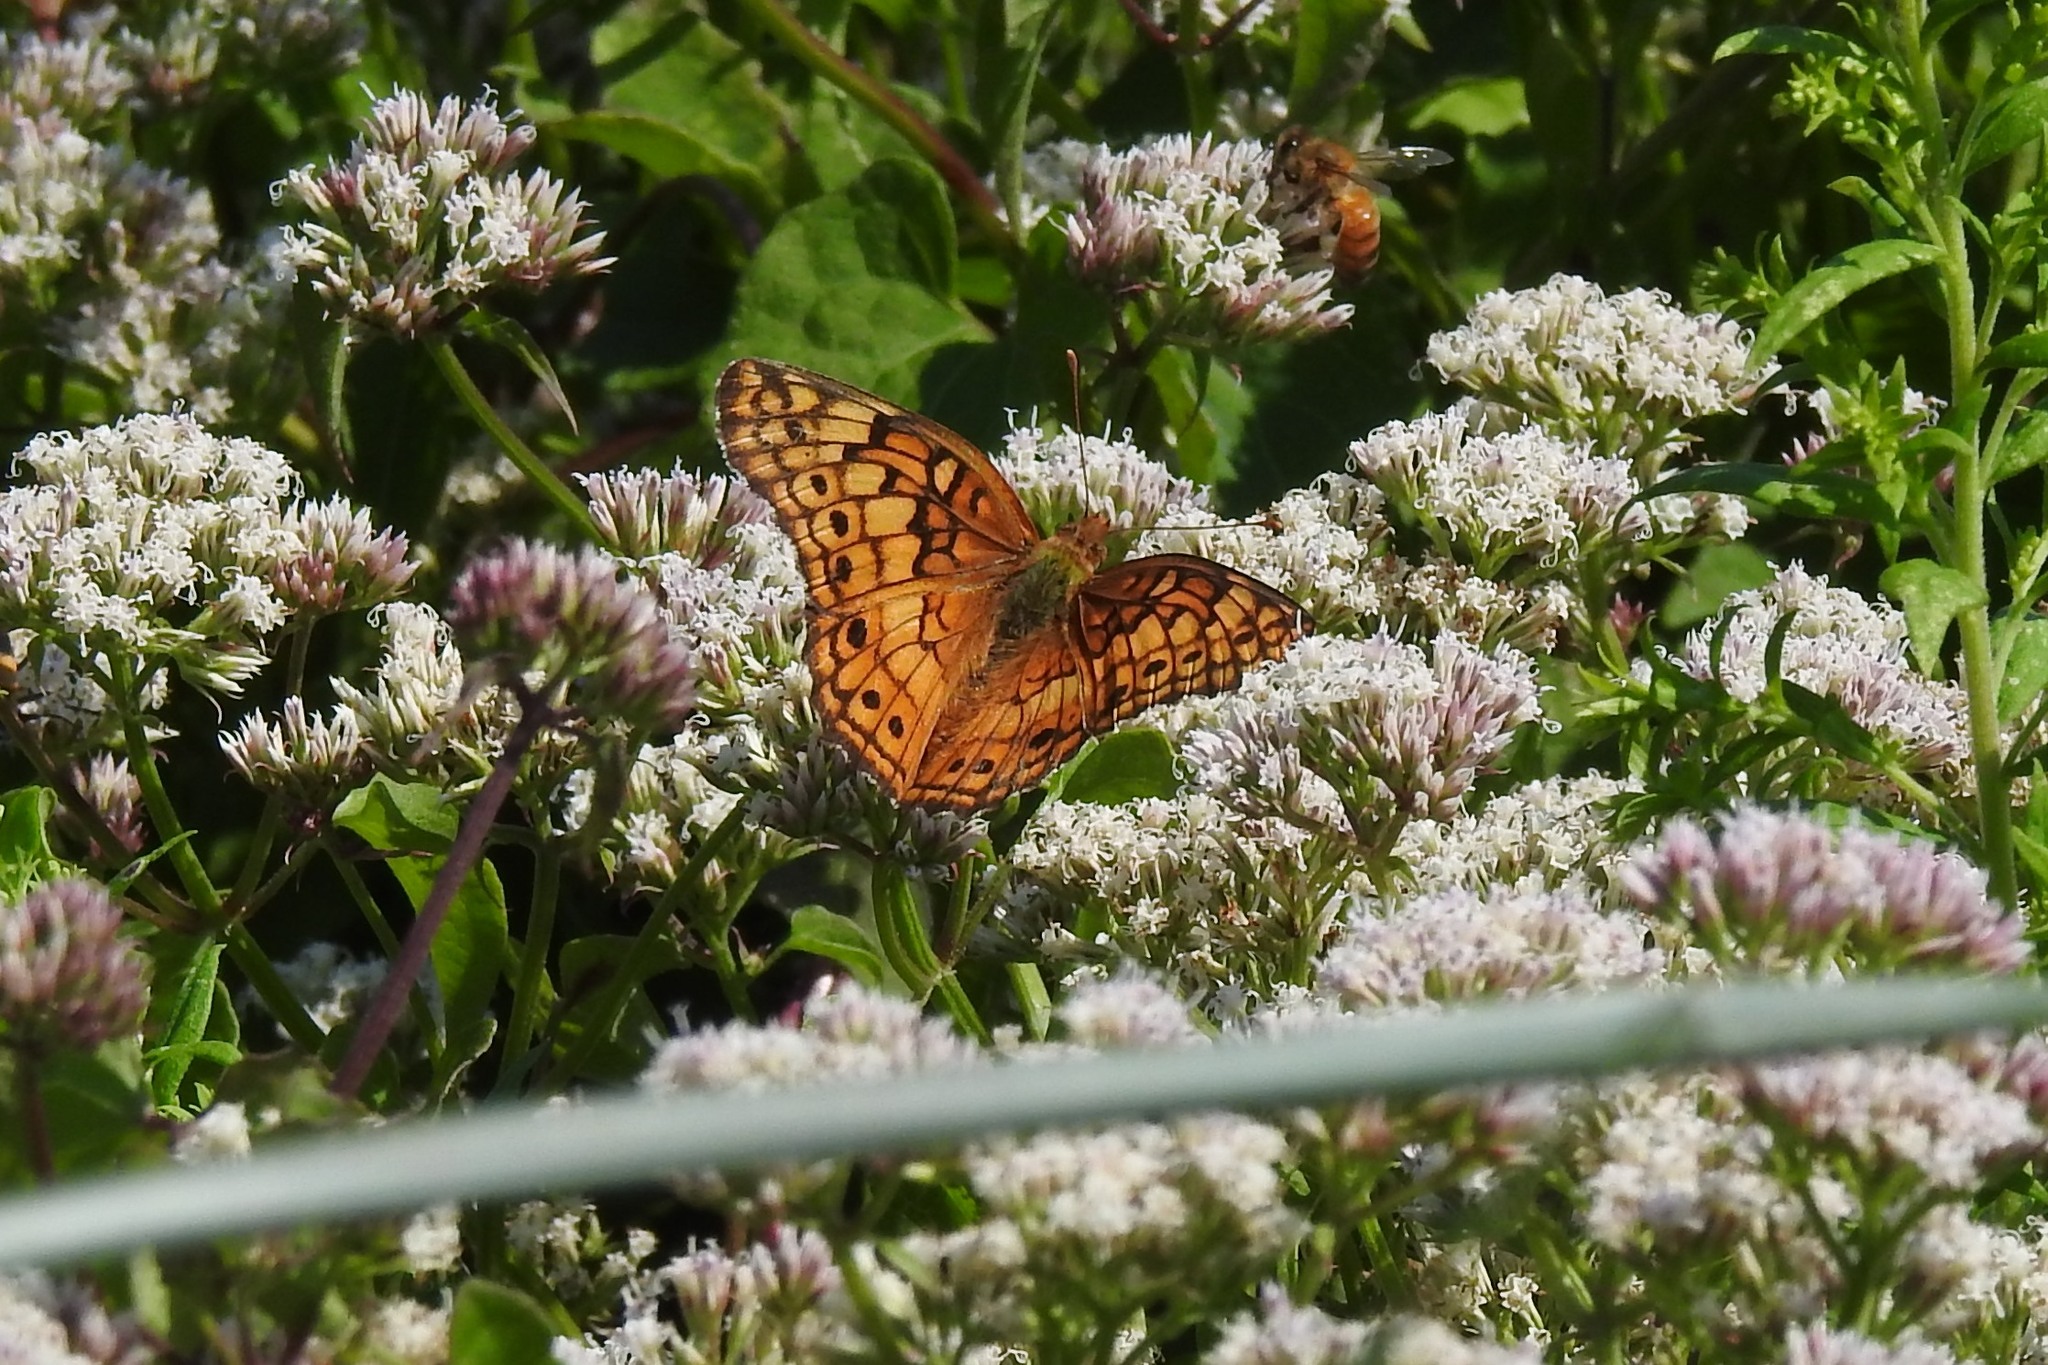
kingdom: Animalia
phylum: Arthropoda
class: Insecta
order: Lepidoptera
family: Nymphalidae
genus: Euptoieta
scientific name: Euptoieta claudia
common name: Variegated fritillary
